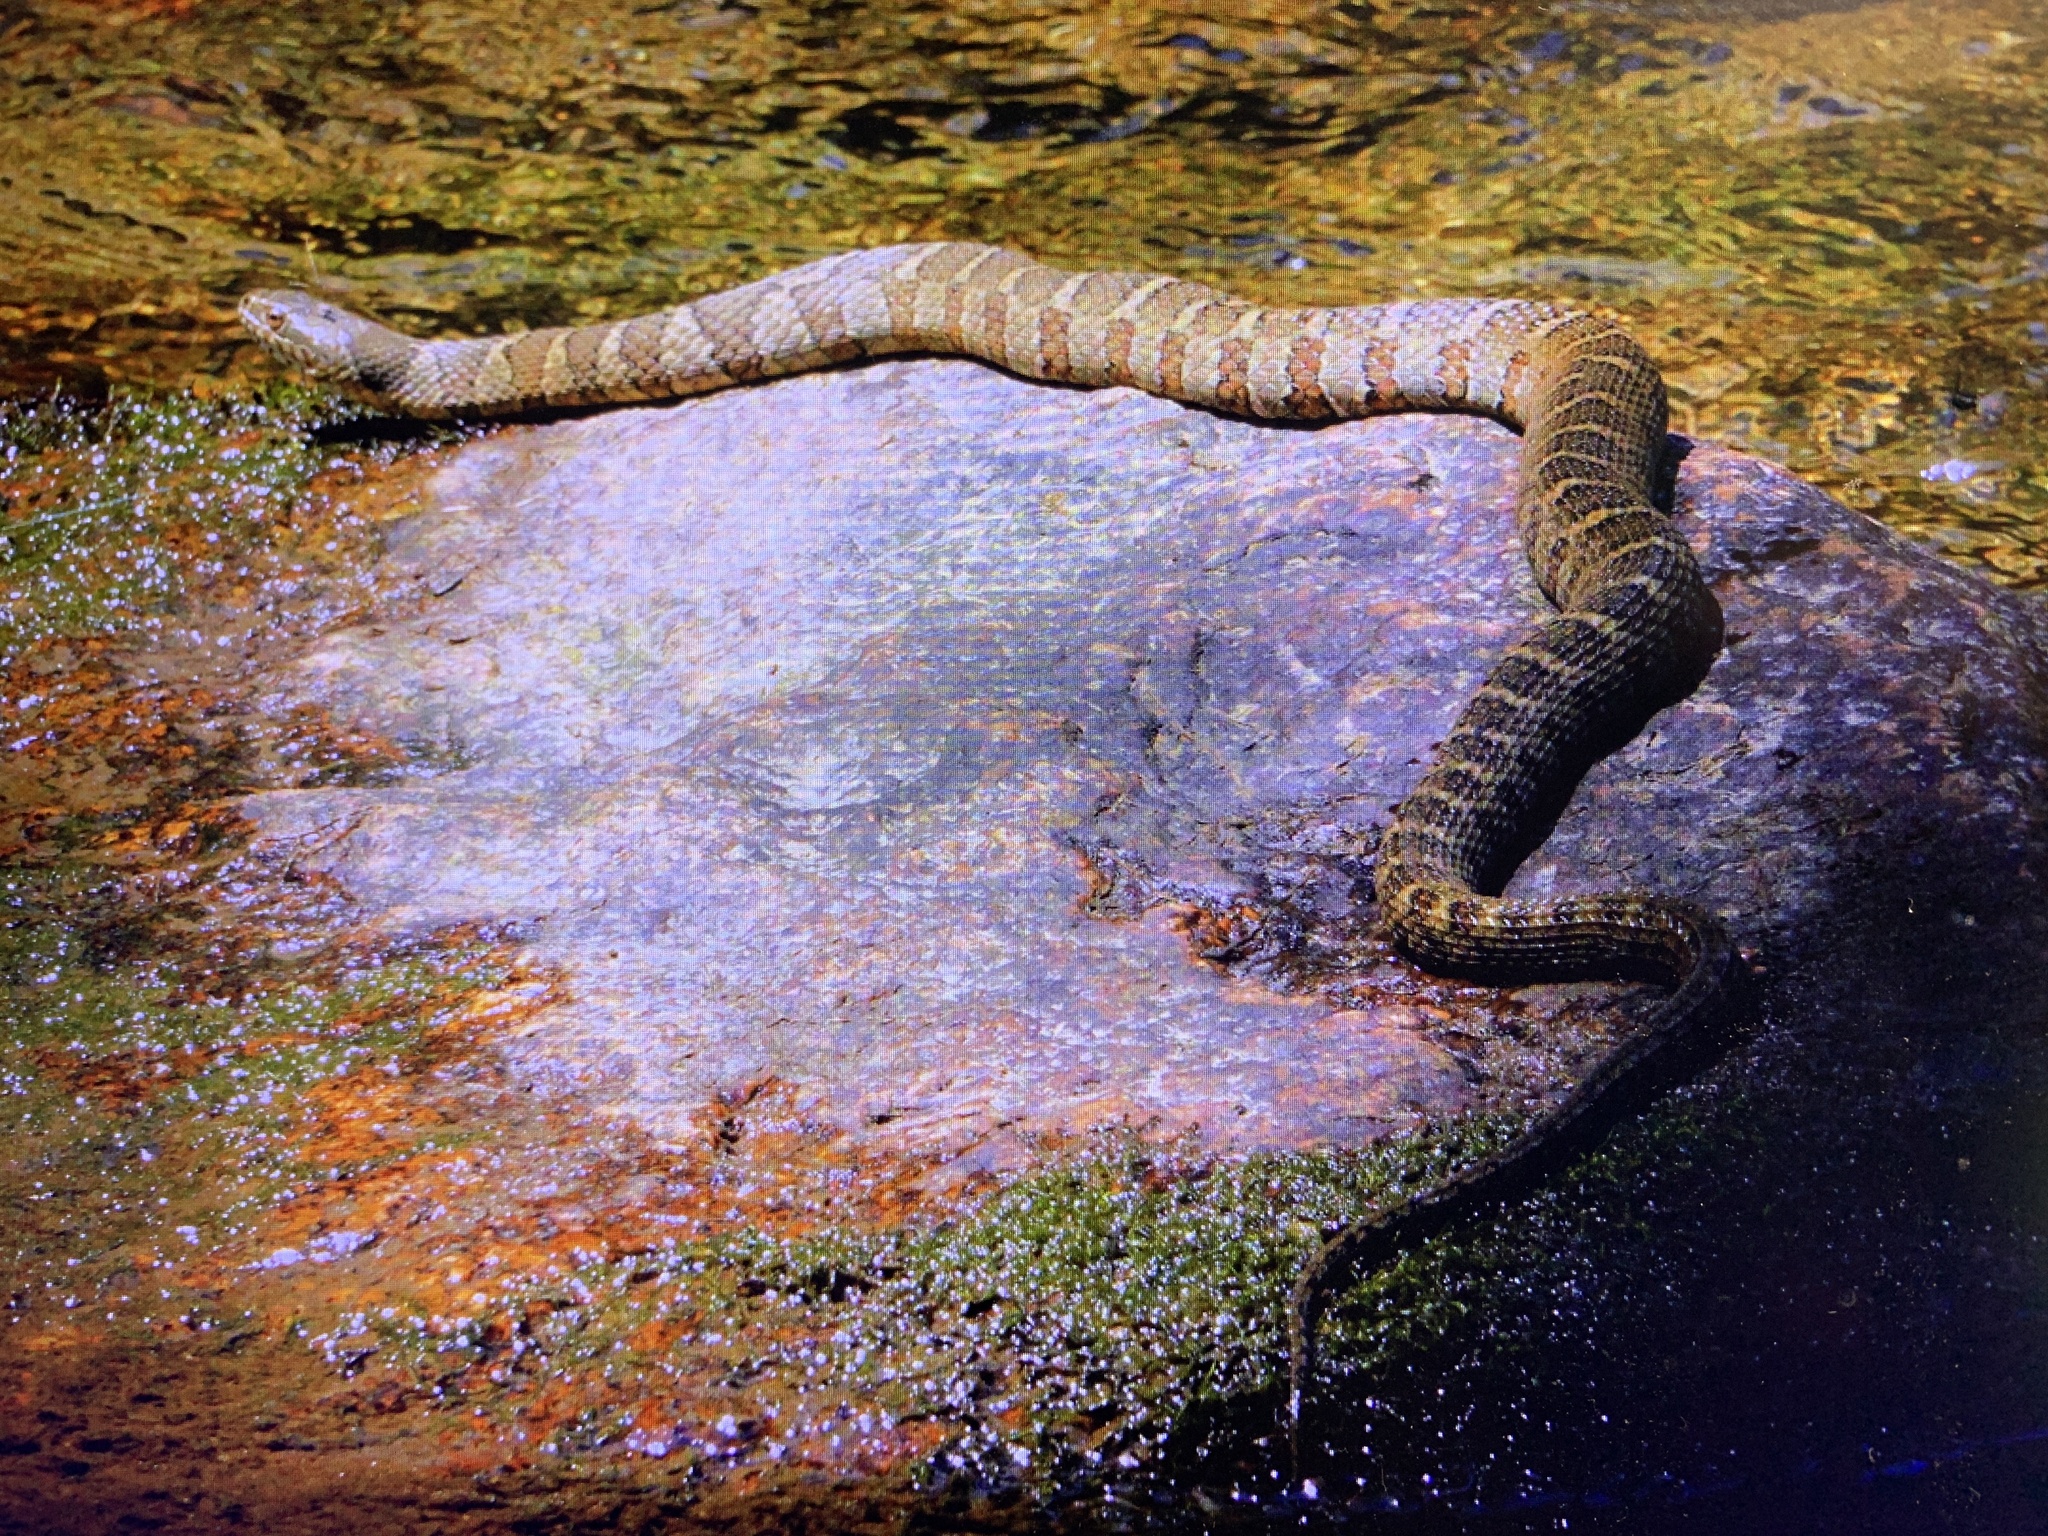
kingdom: Animalia
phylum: Chordata
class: Squamata
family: Colubridae
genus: Nerodia
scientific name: Nerodia sipedon
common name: Northern water snake
